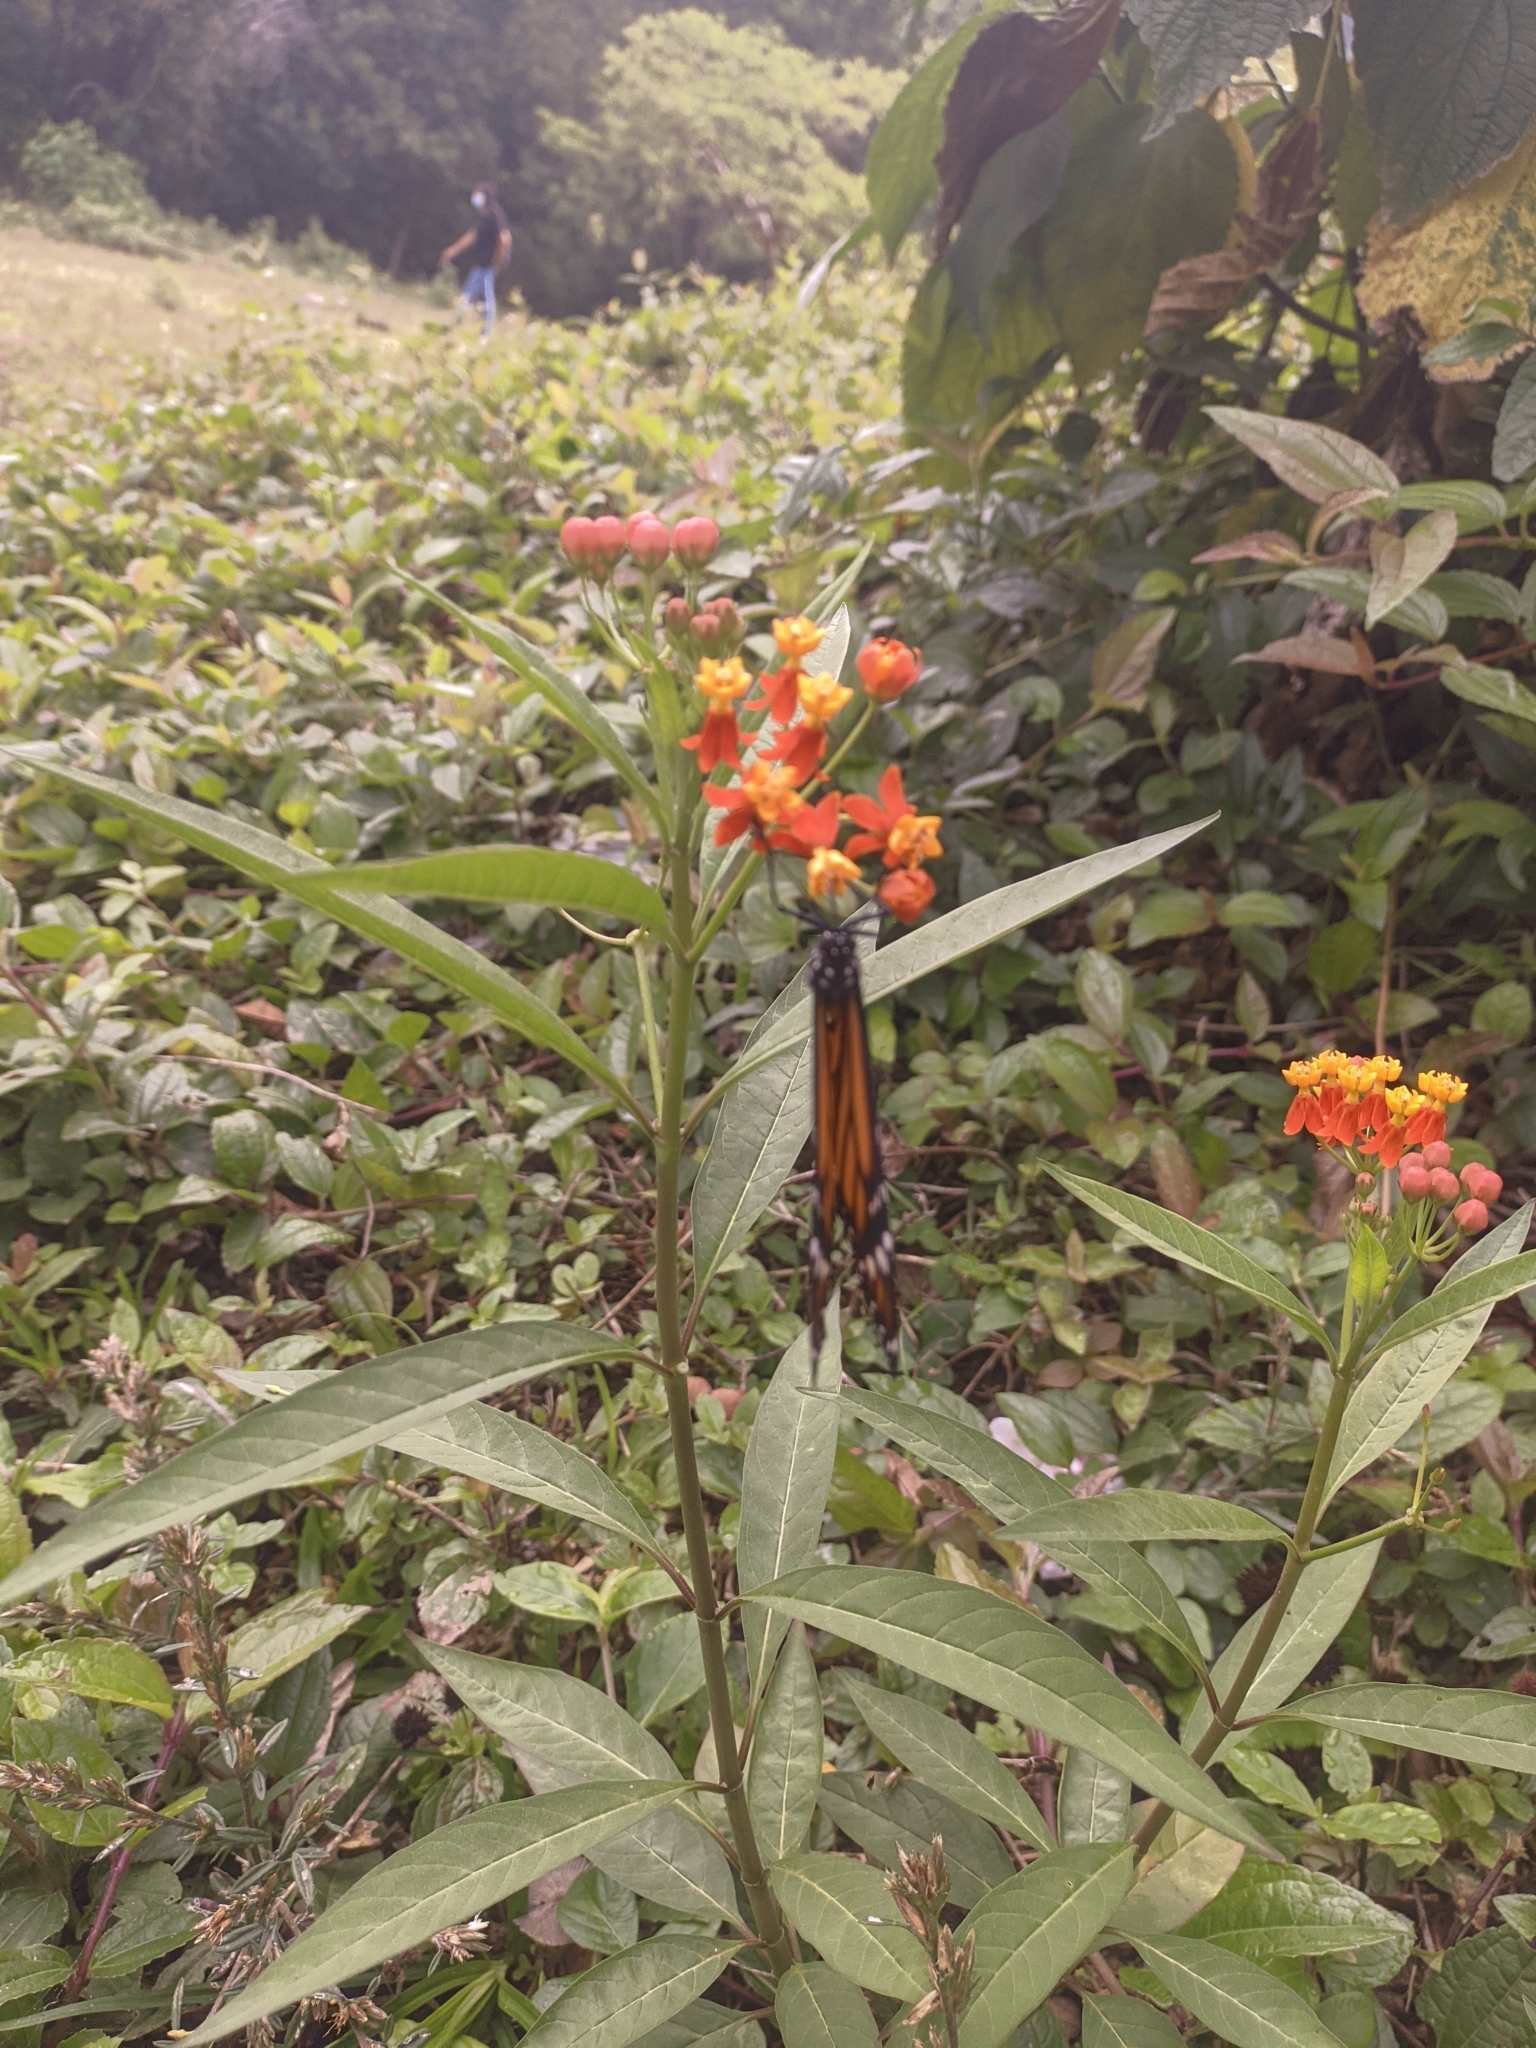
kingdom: Animalia
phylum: Arthropoda
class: Insecta
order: Lepidoptera
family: Nymphalidae
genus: Danaus
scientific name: Danaus plexippus
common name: Monarch
